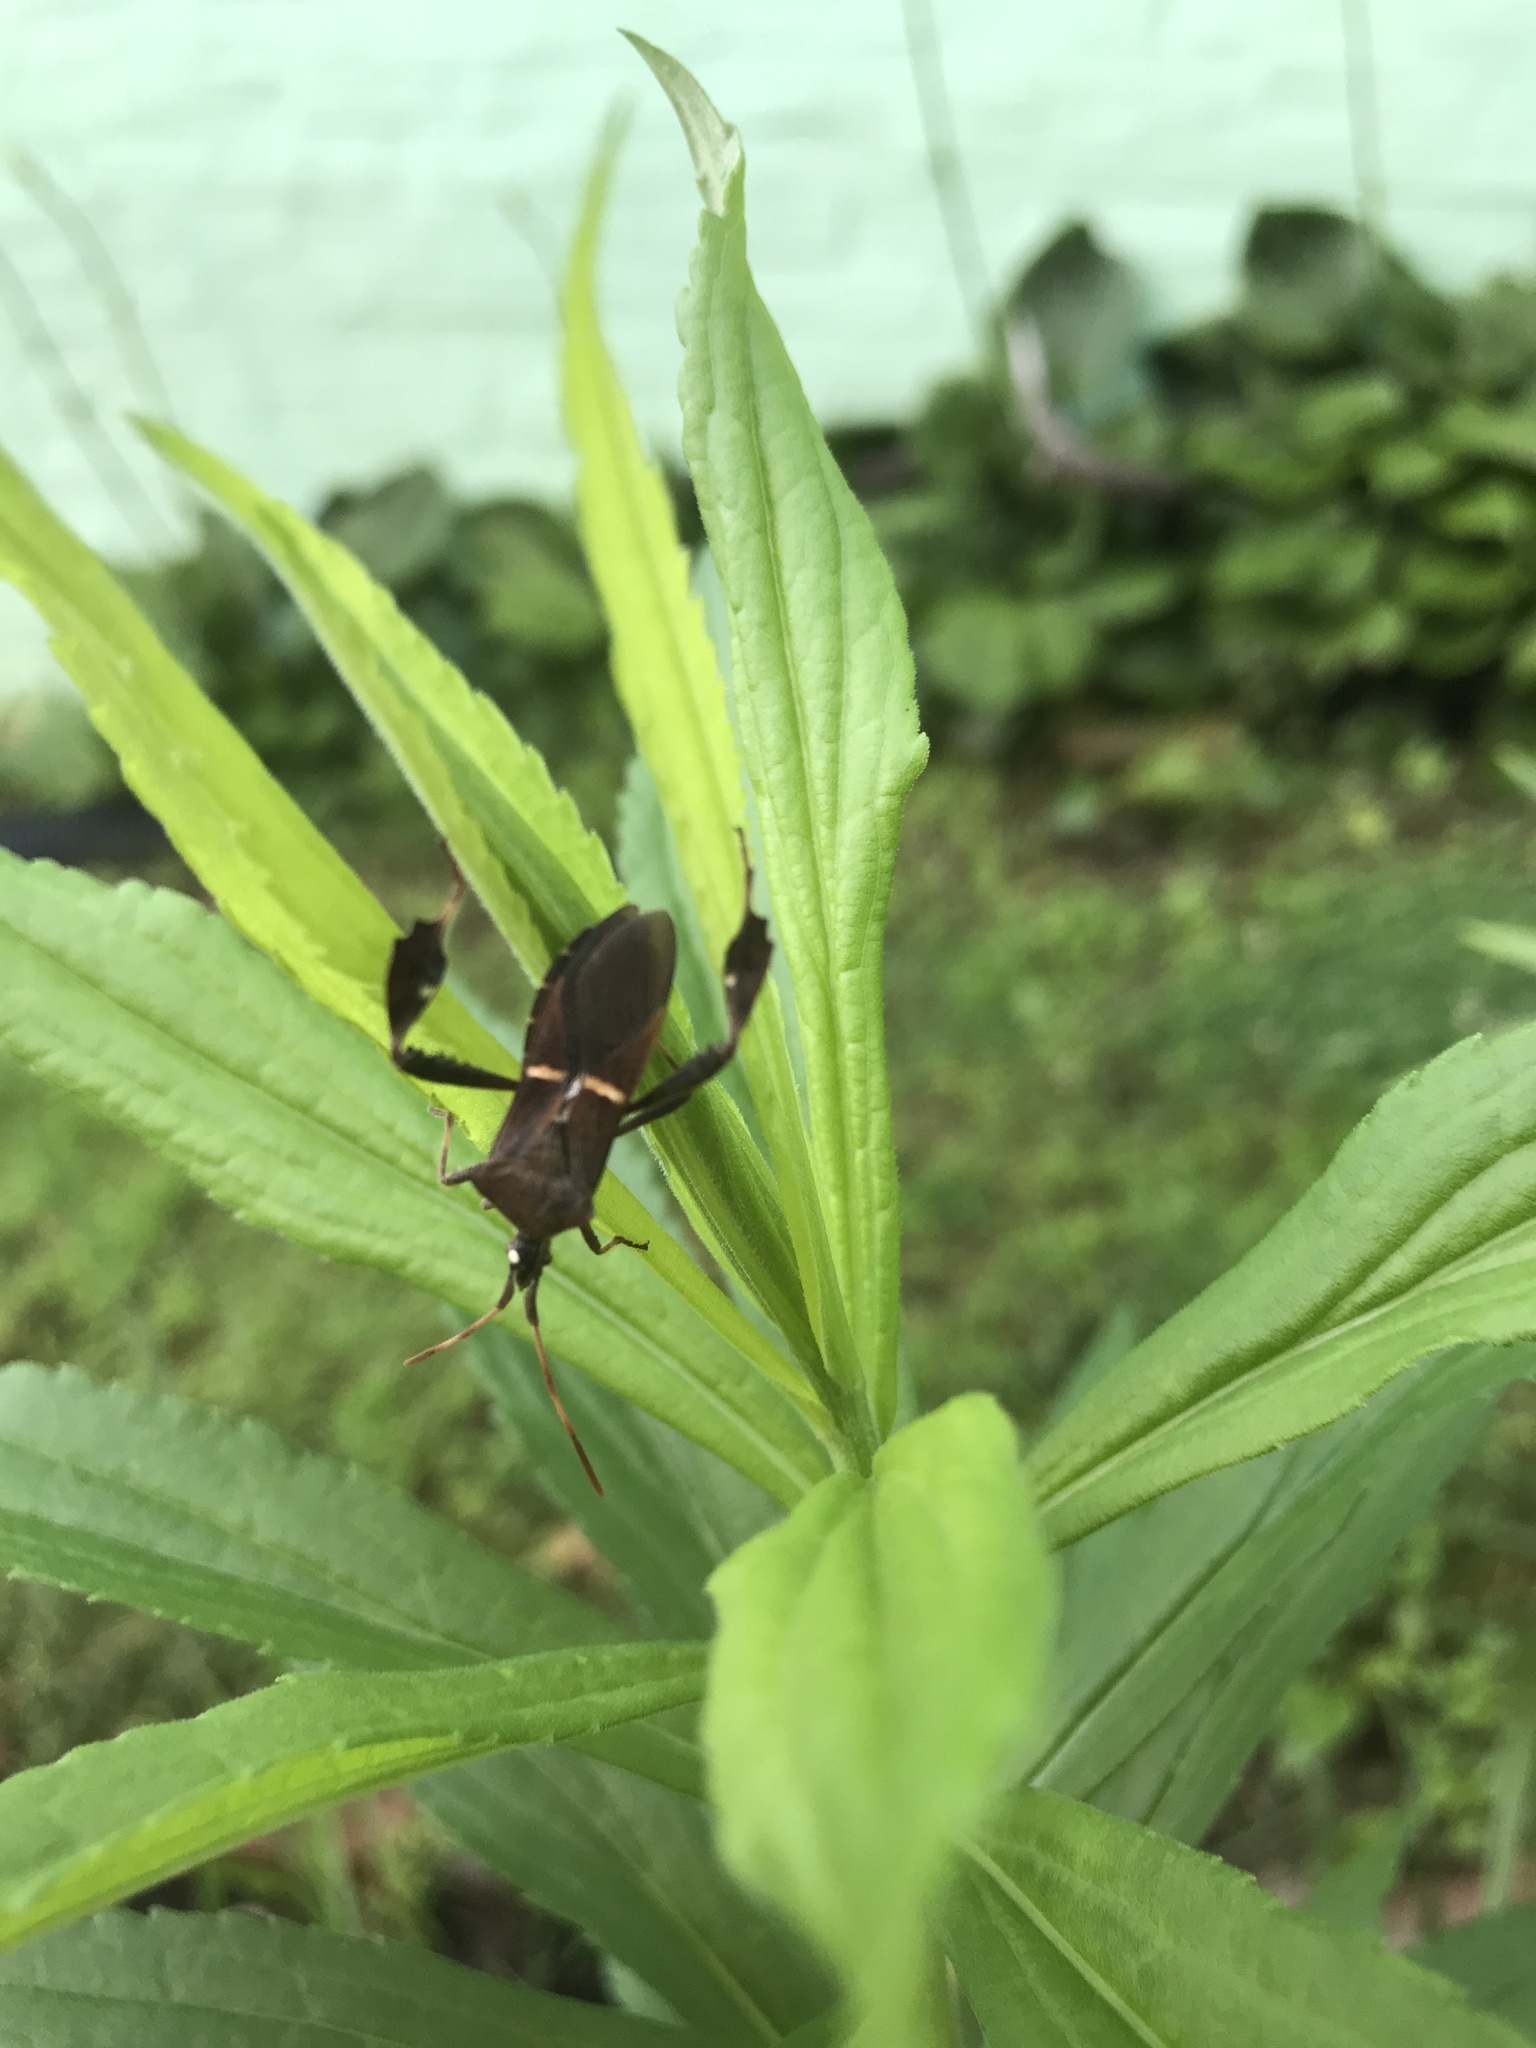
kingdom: Animalia
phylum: Arthropoda
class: Insecta
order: Hemiptera
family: Coreidae
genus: Leptoglossus
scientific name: Leptoglossus phyllopus
